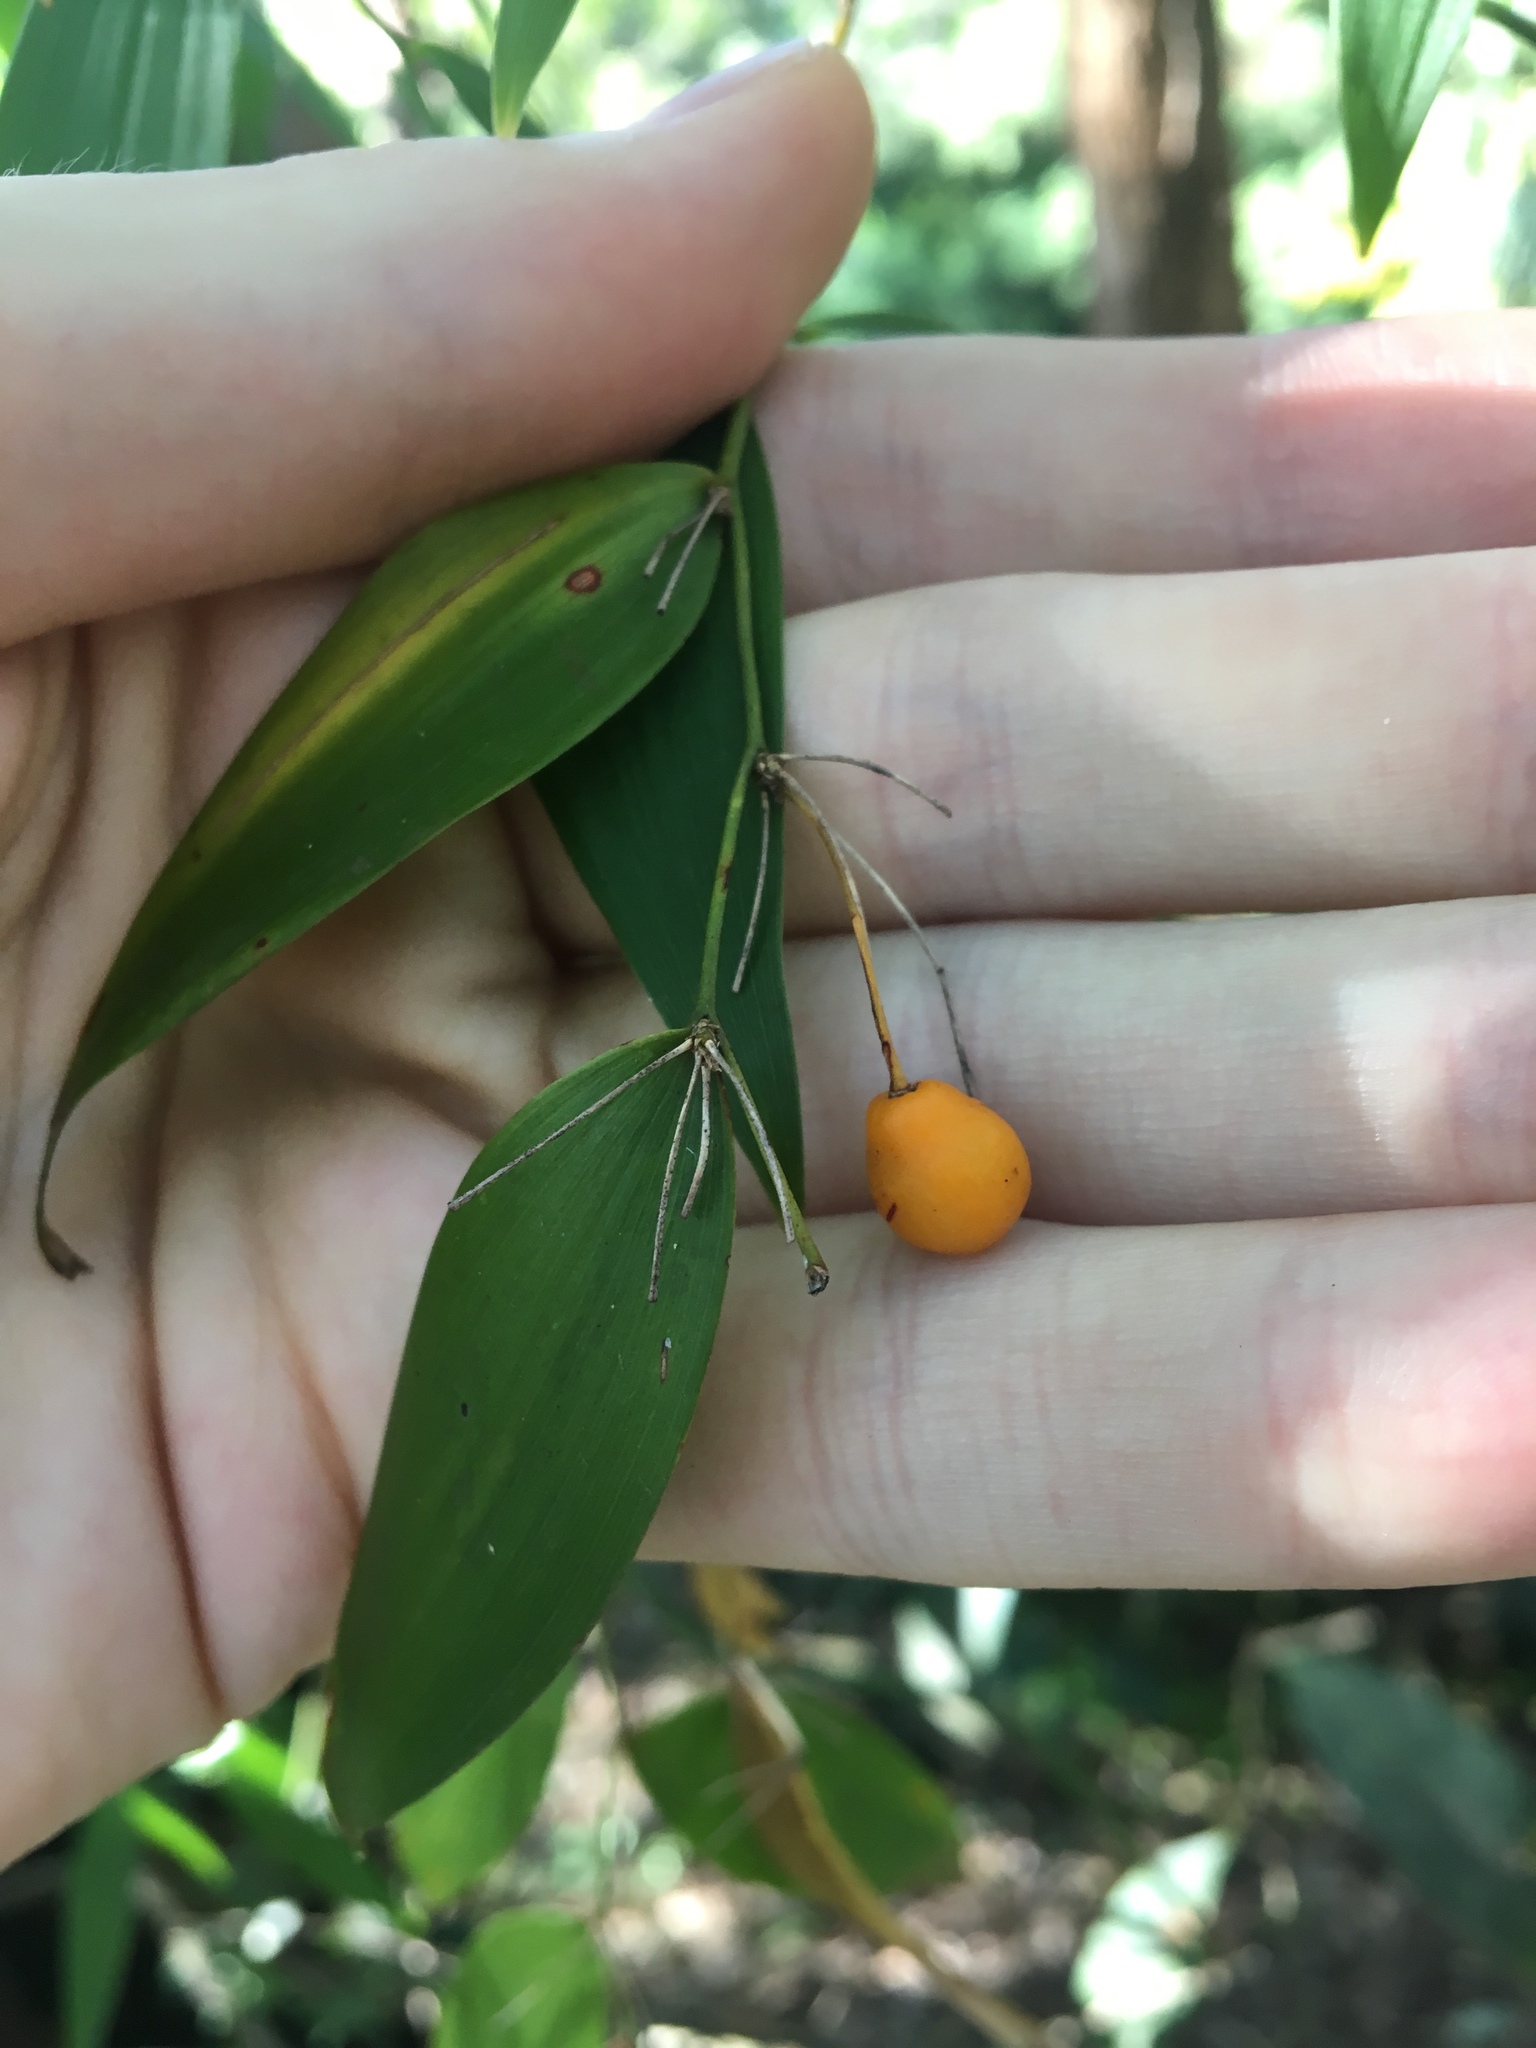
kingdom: Plantae
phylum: Tracheophyta
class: Liliopsida
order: Asparagales
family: Asparagaceae
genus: Eustrephus
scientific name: Eustrephus latifolius
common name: Orangevine
